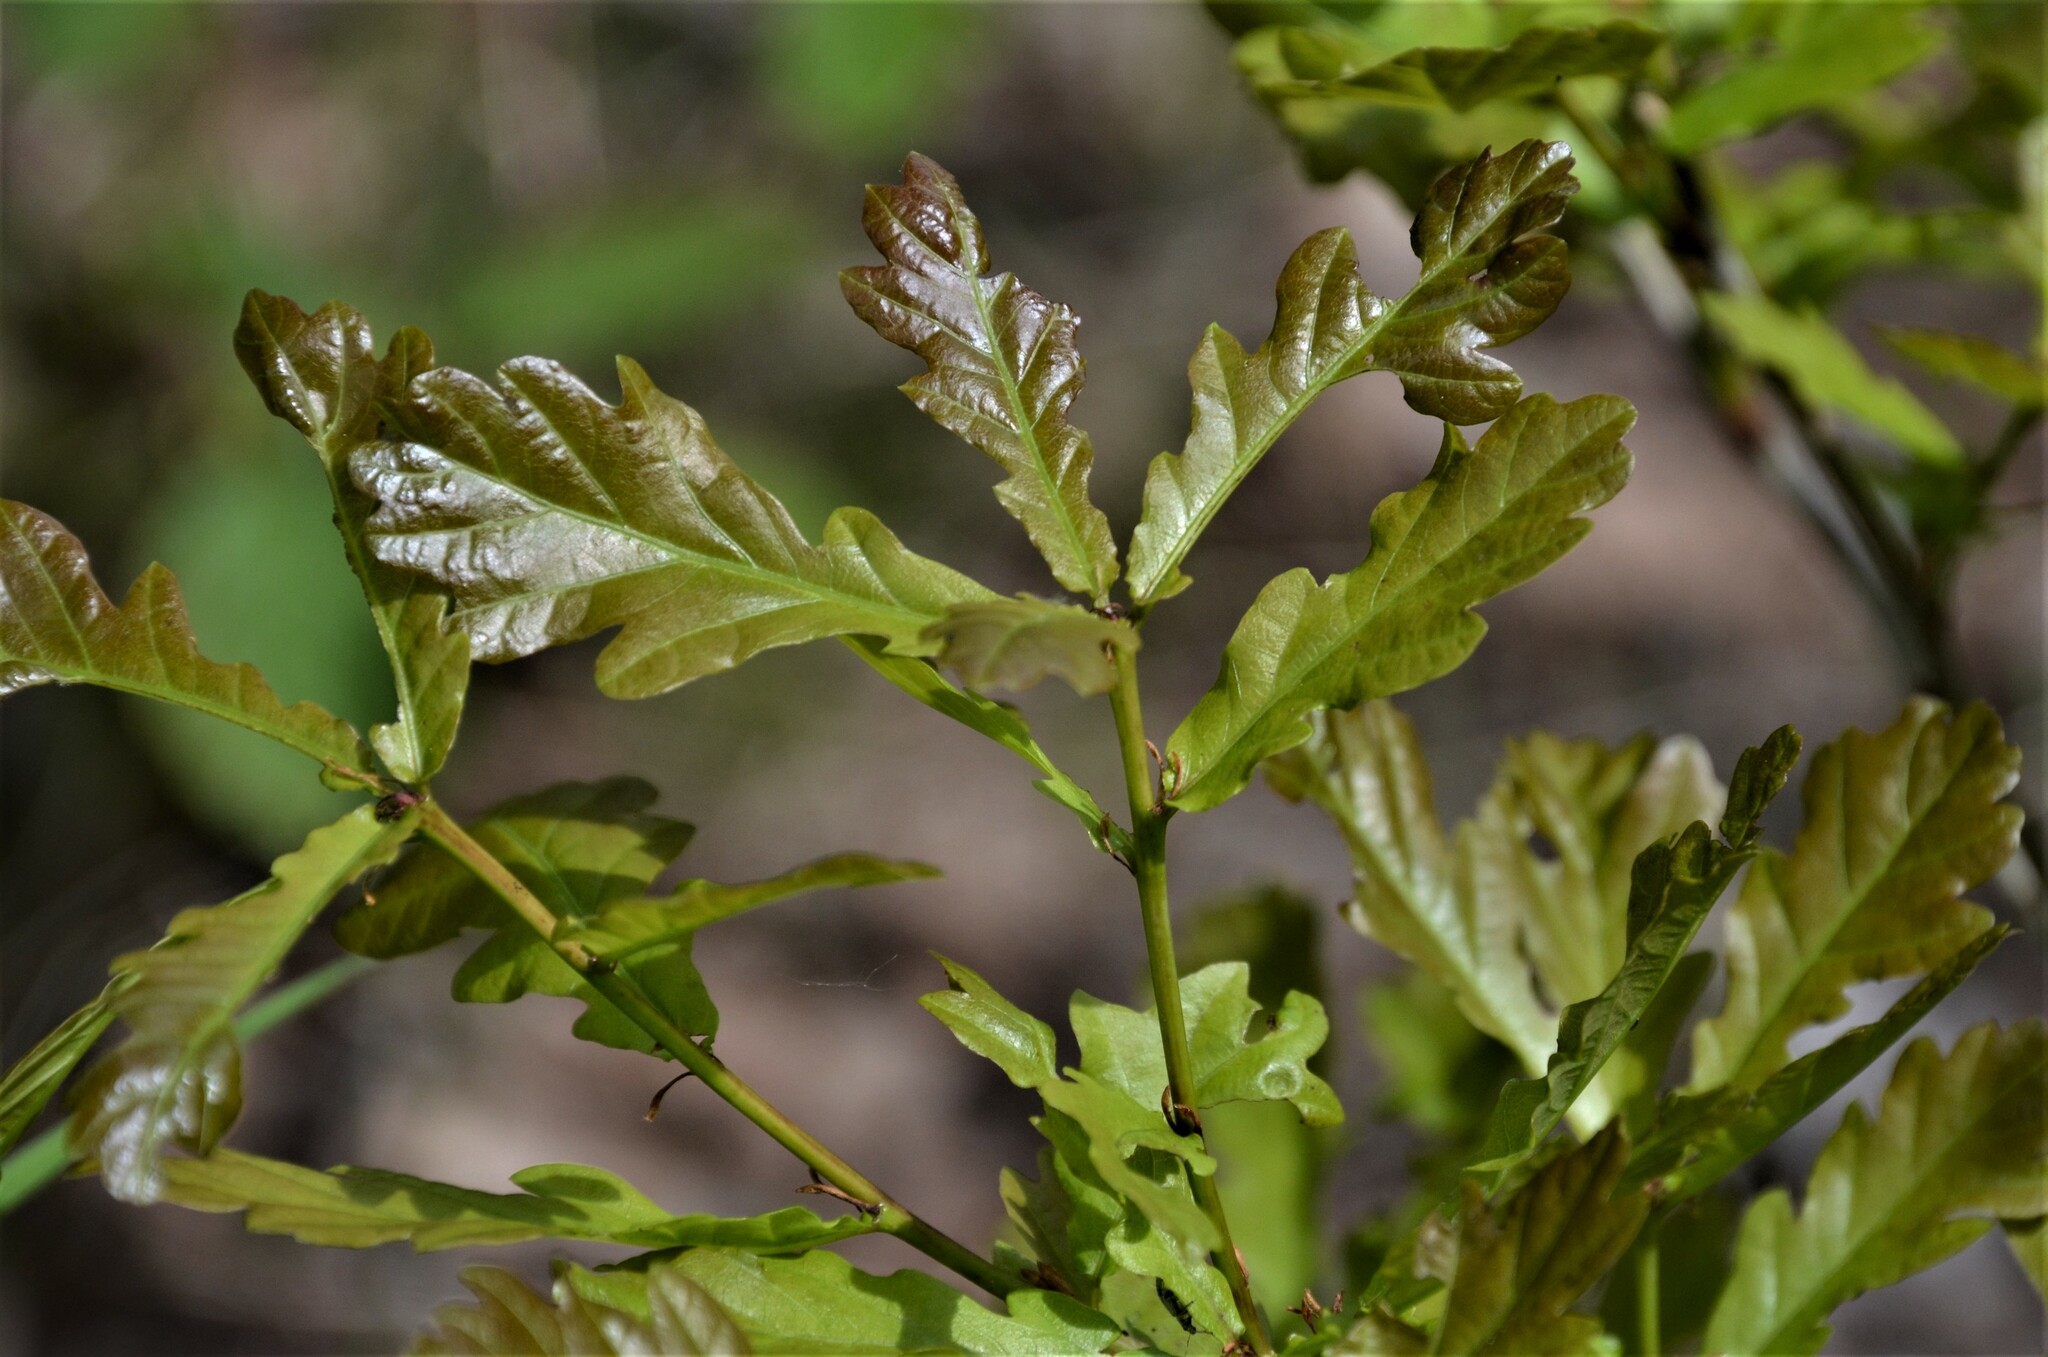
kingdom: Plantae
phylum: Tracheophyta
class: Magnoliopsida
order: Fagales
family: Fagaceae
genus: Quercus
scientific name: Quercus robur
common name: Pedunculate oak
